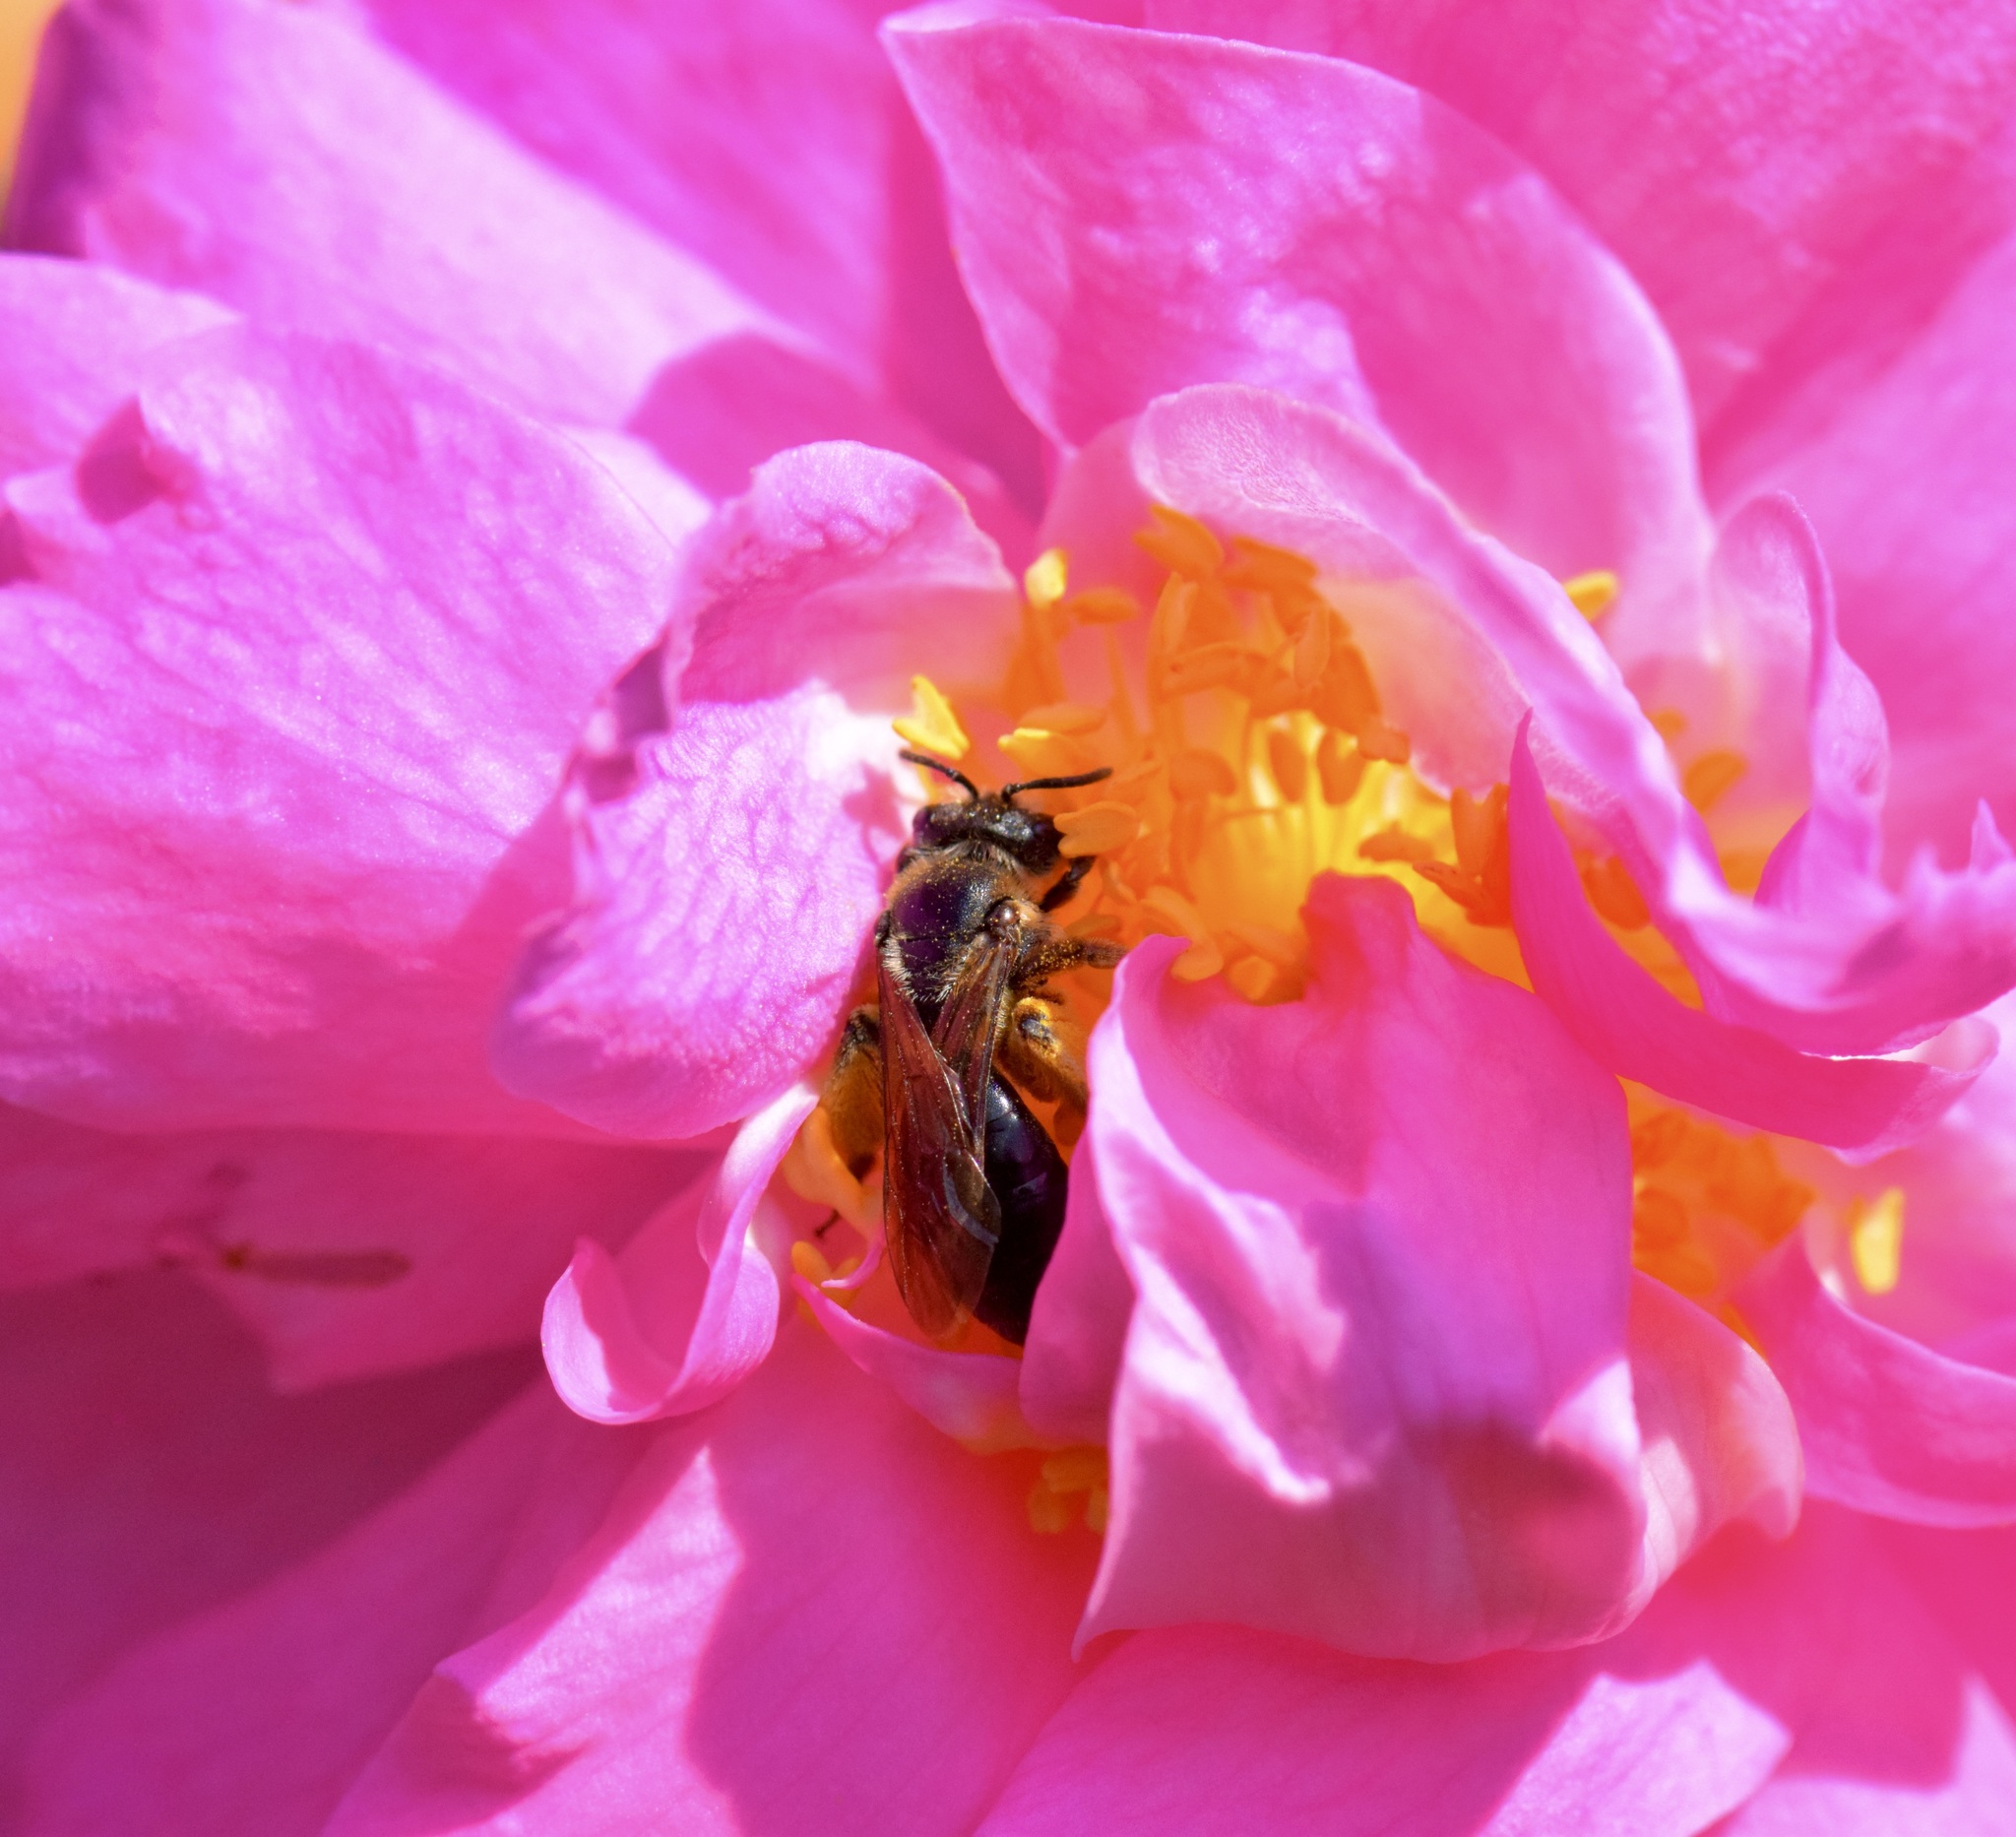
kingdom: Animalia
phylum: Arthropoda
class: Insecta
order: Hymenoptera
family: Andrenidae
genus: Andrena
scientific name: Andrena crataegi
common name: Hawthorn mining bee
